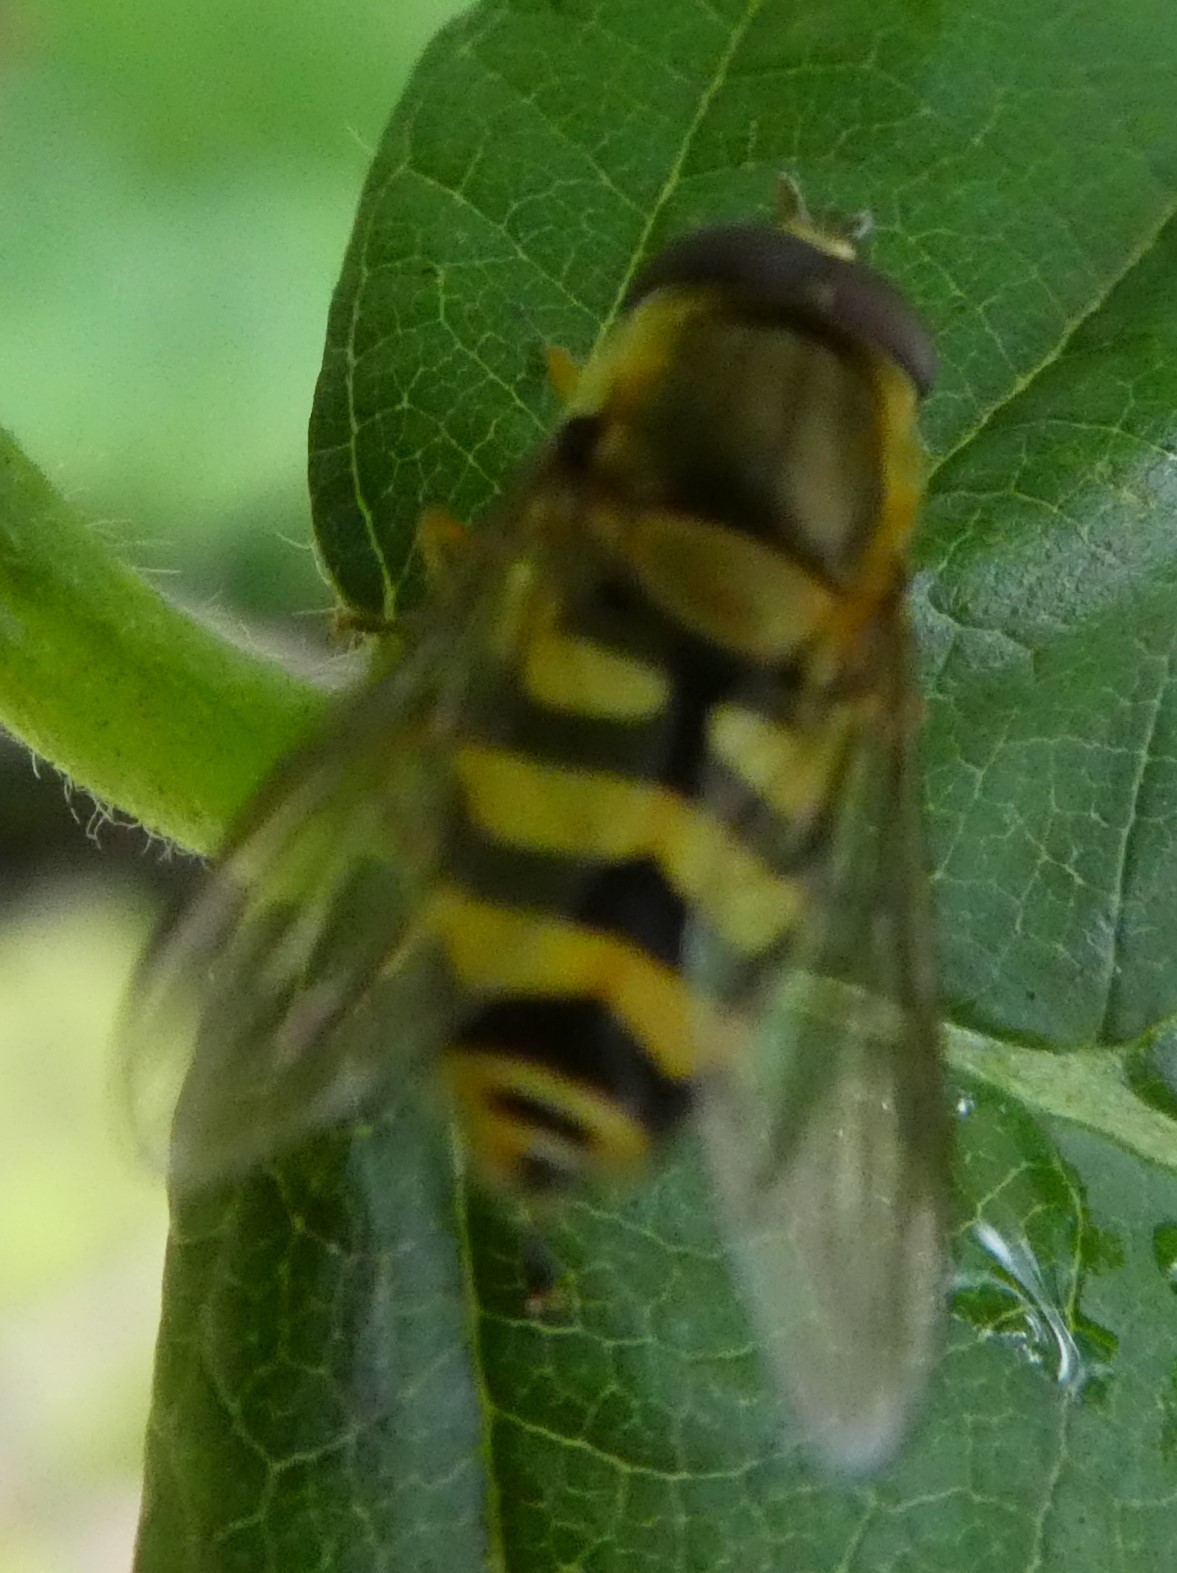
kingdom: Animalia
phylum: Arthropoda
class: Insecta
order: Diptera
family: Syrphidae
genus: Syrphus
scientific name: Syrphus
